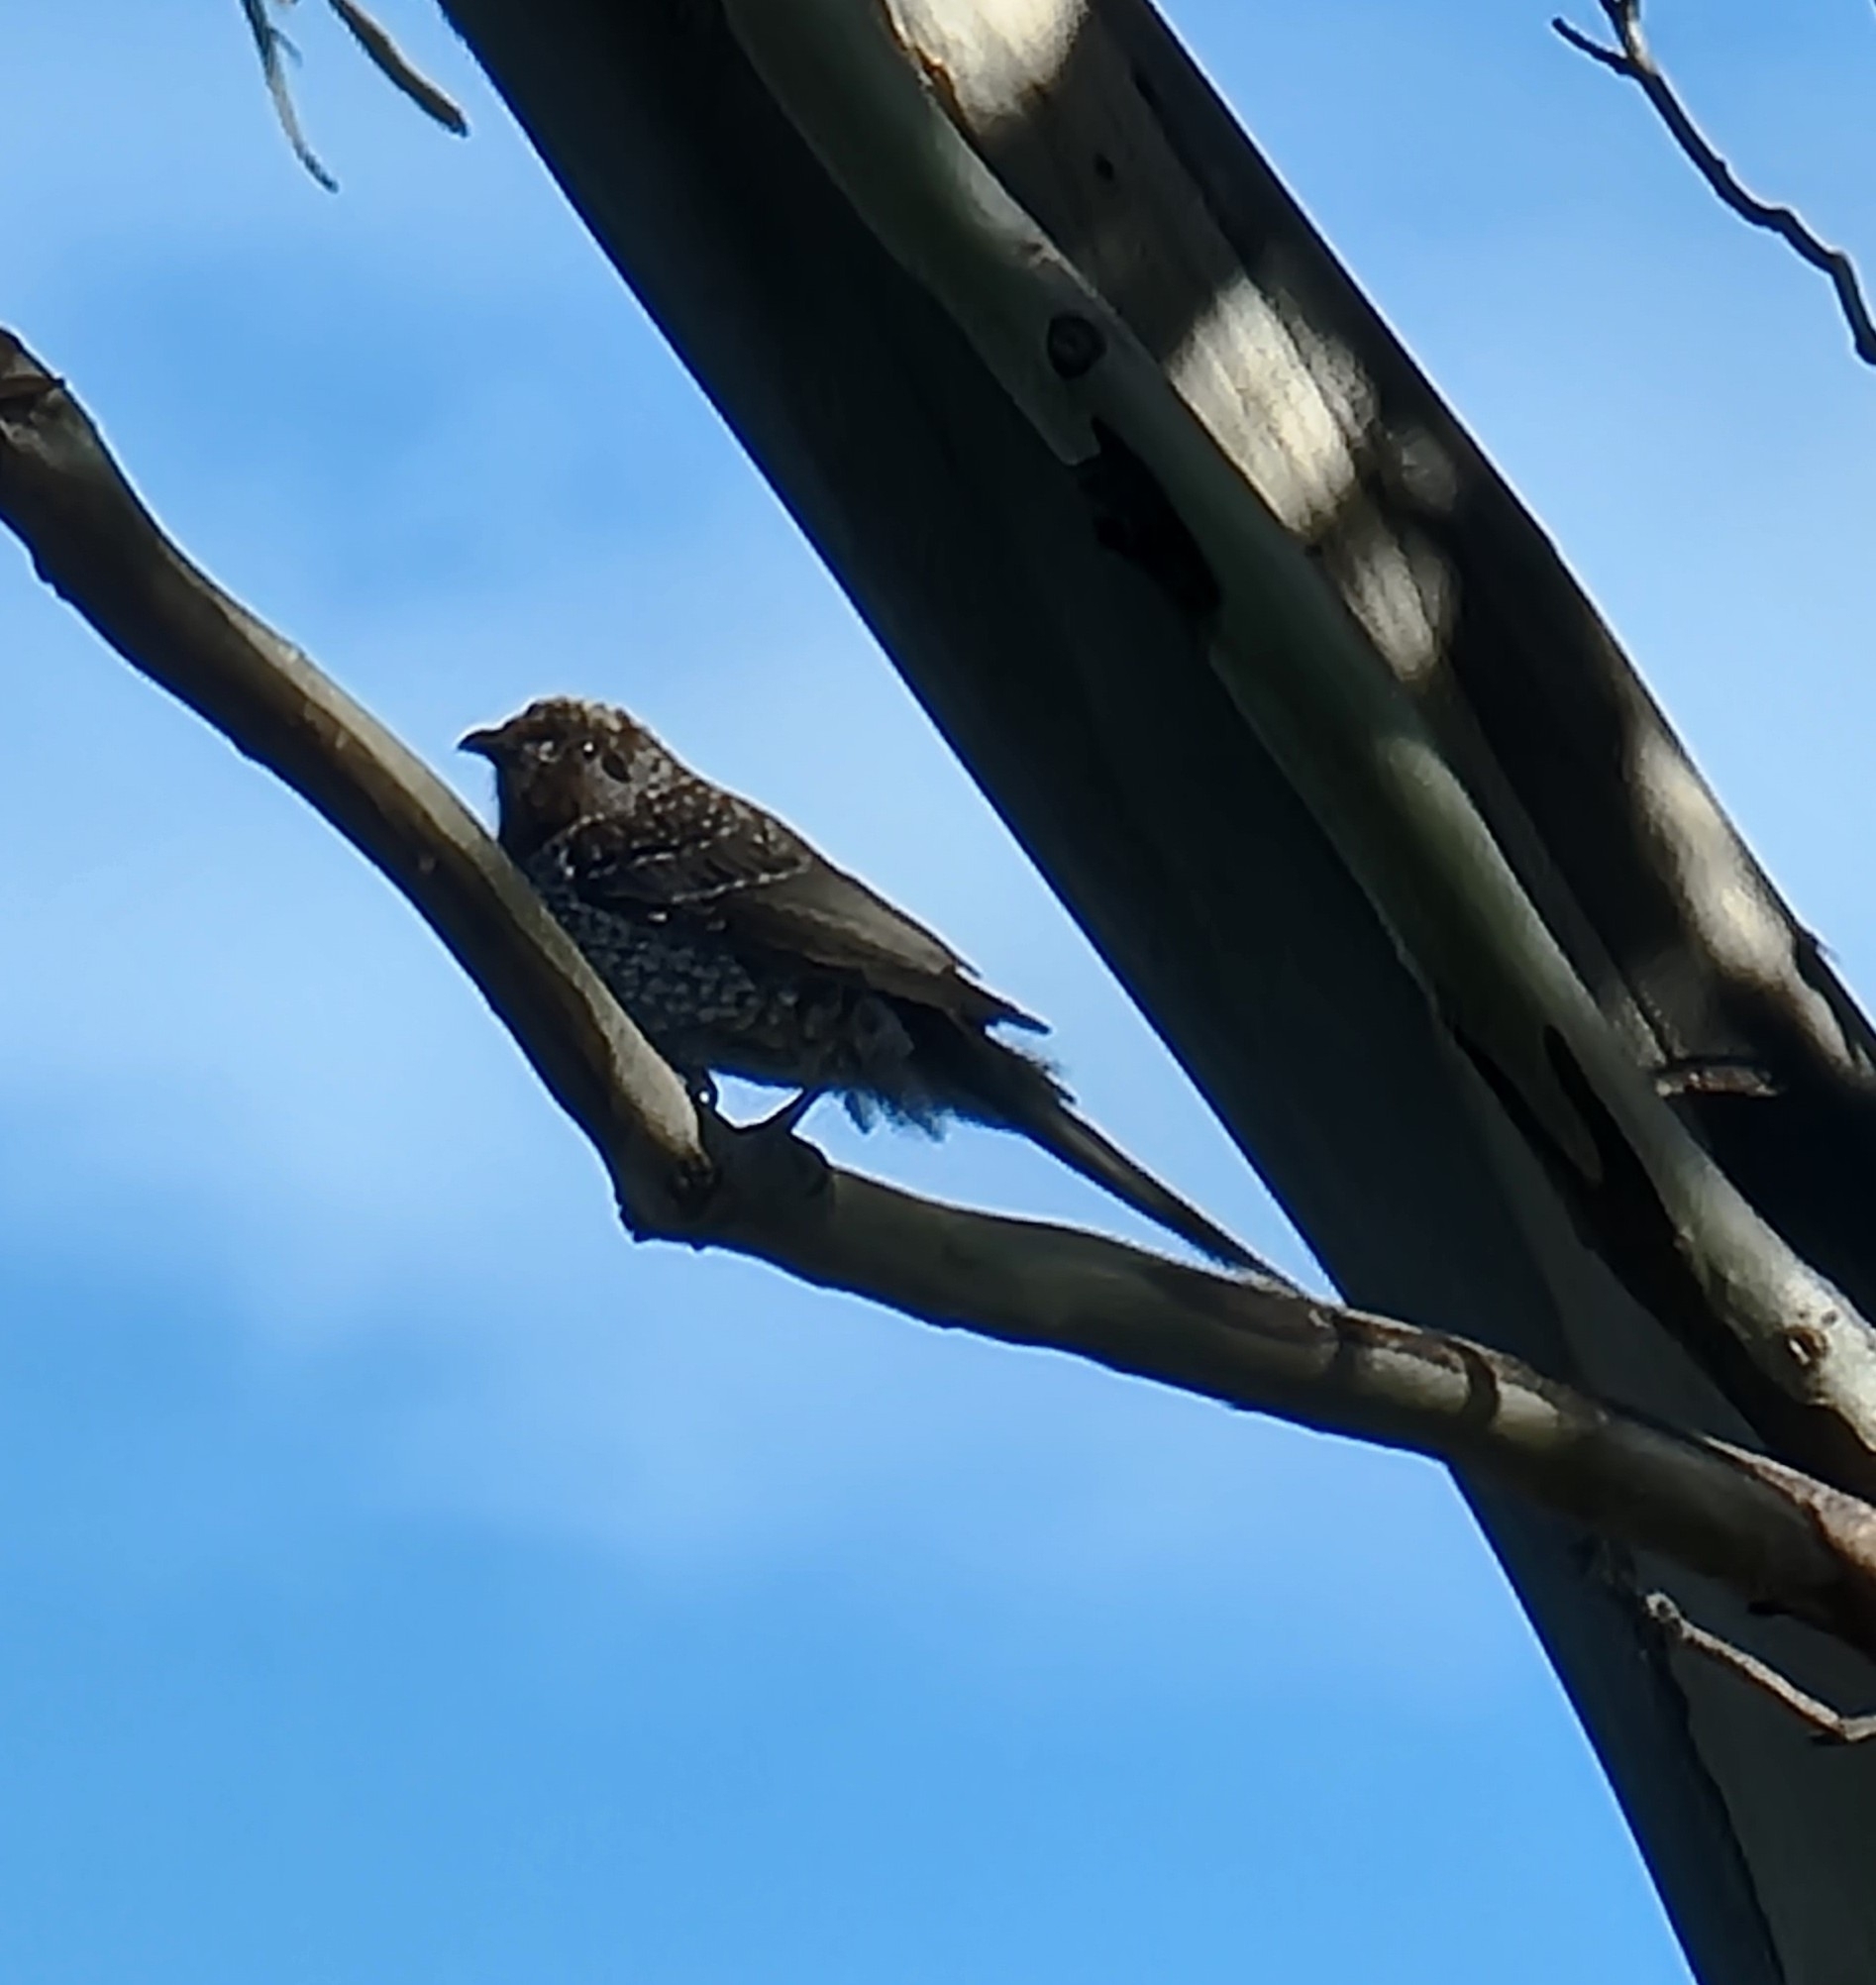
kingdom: Animalia
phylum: Chordata
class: Aves
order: Passeriformes
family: Meliphagidae
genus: Anthochaera
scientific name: Anthochaera chrysoptera
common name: Little wattlebird
